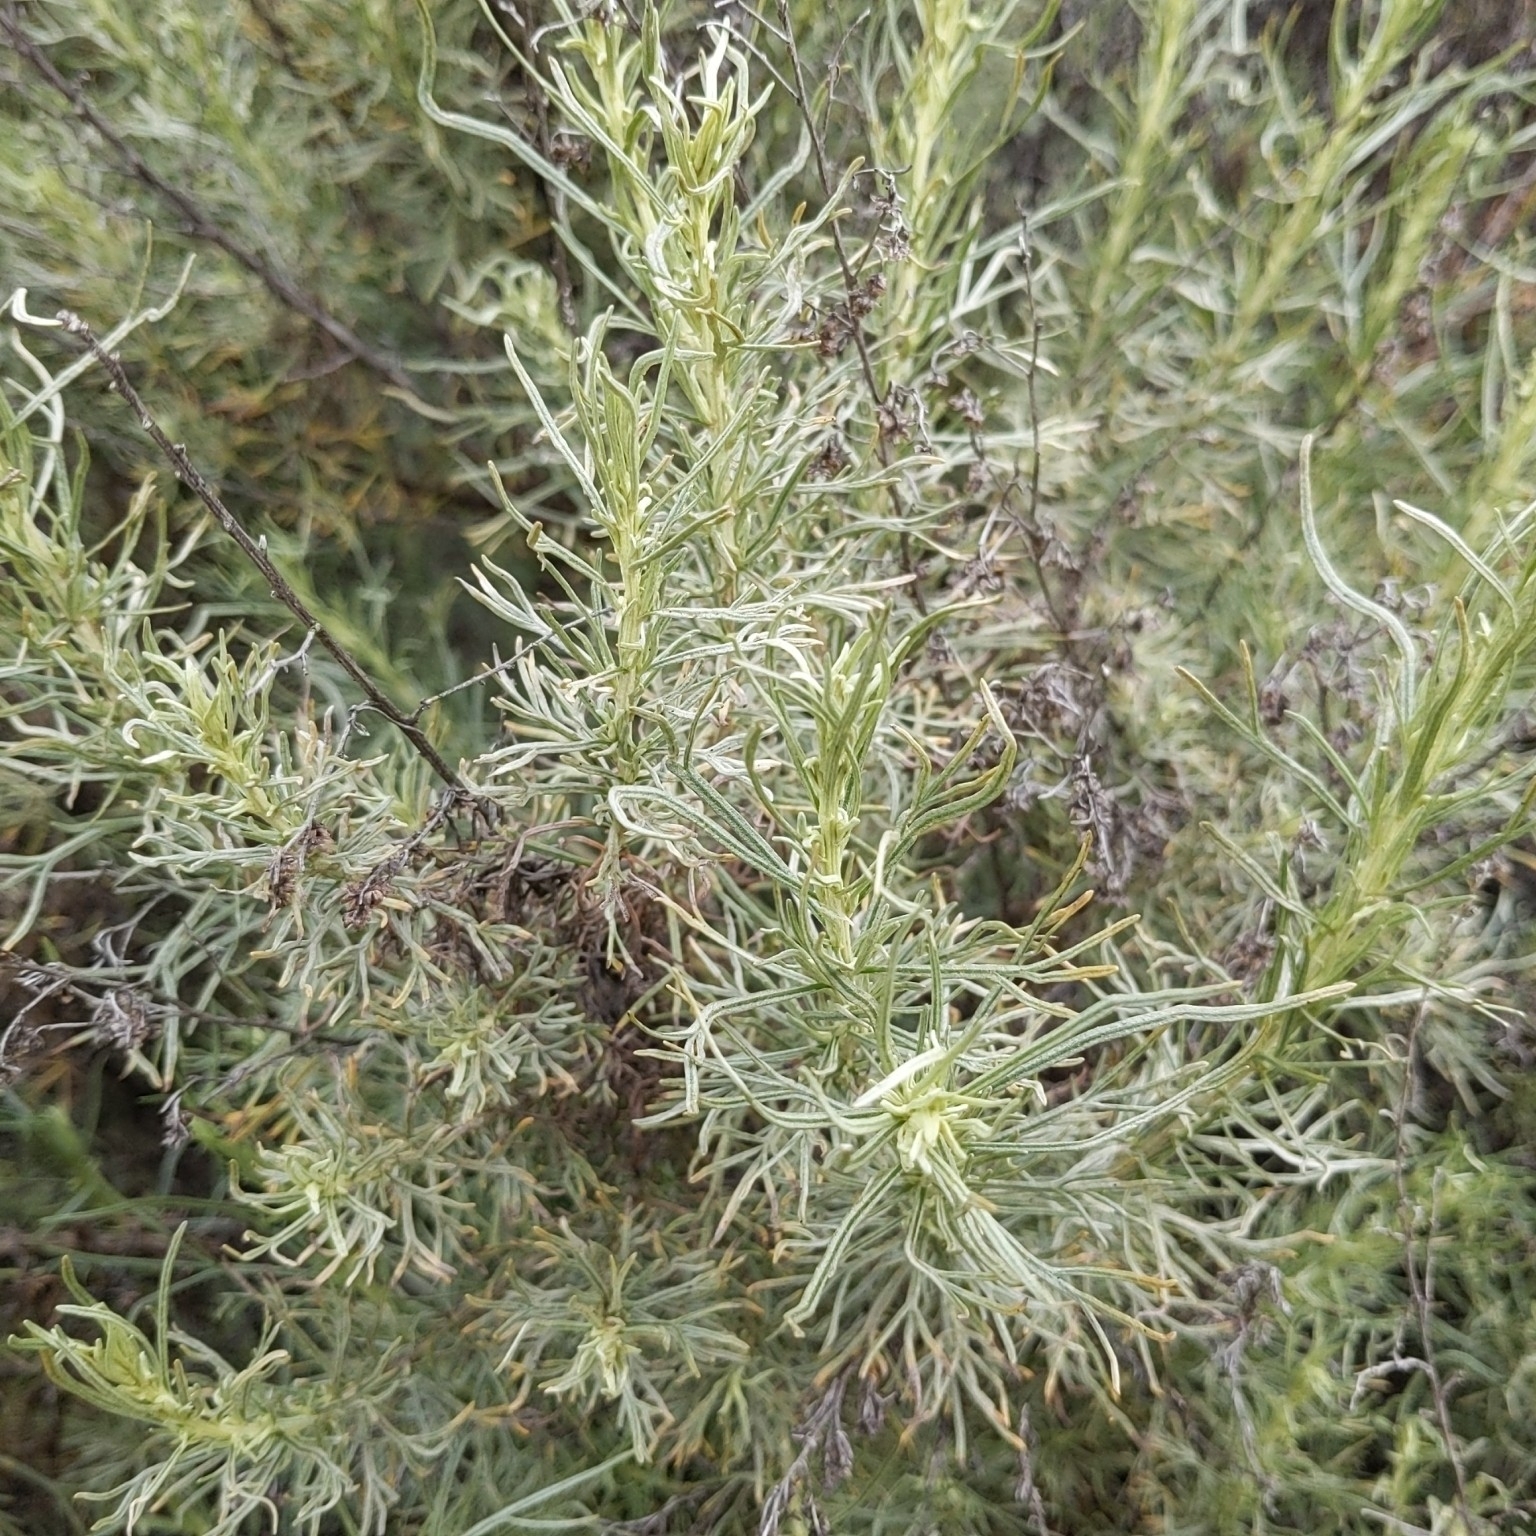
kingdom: Plantae
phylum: Tracheophyta
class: Magnoliopsida
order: Asterales
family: Asteraceae
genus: Artemisia
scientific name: Artemisia californica
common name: California sagebrush
